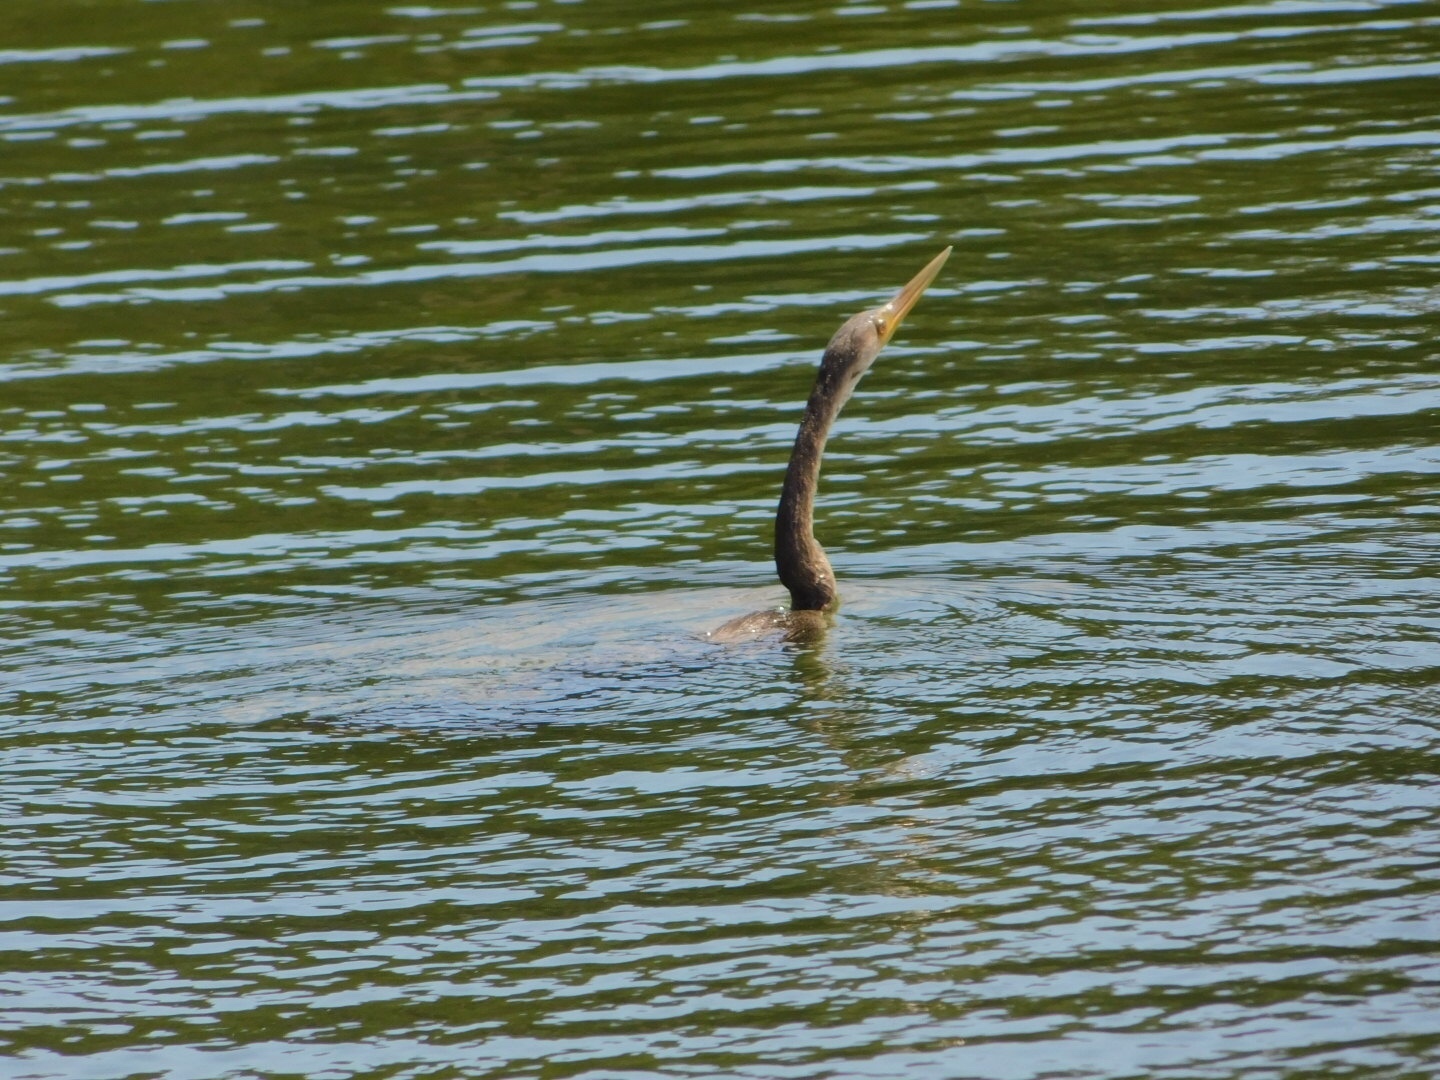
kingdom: Animalia
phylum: Chordata
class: Aves
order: Suliformes
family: Anhingidae
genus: Anhinga
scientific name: Anhinga anhinga
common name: Anhinga
